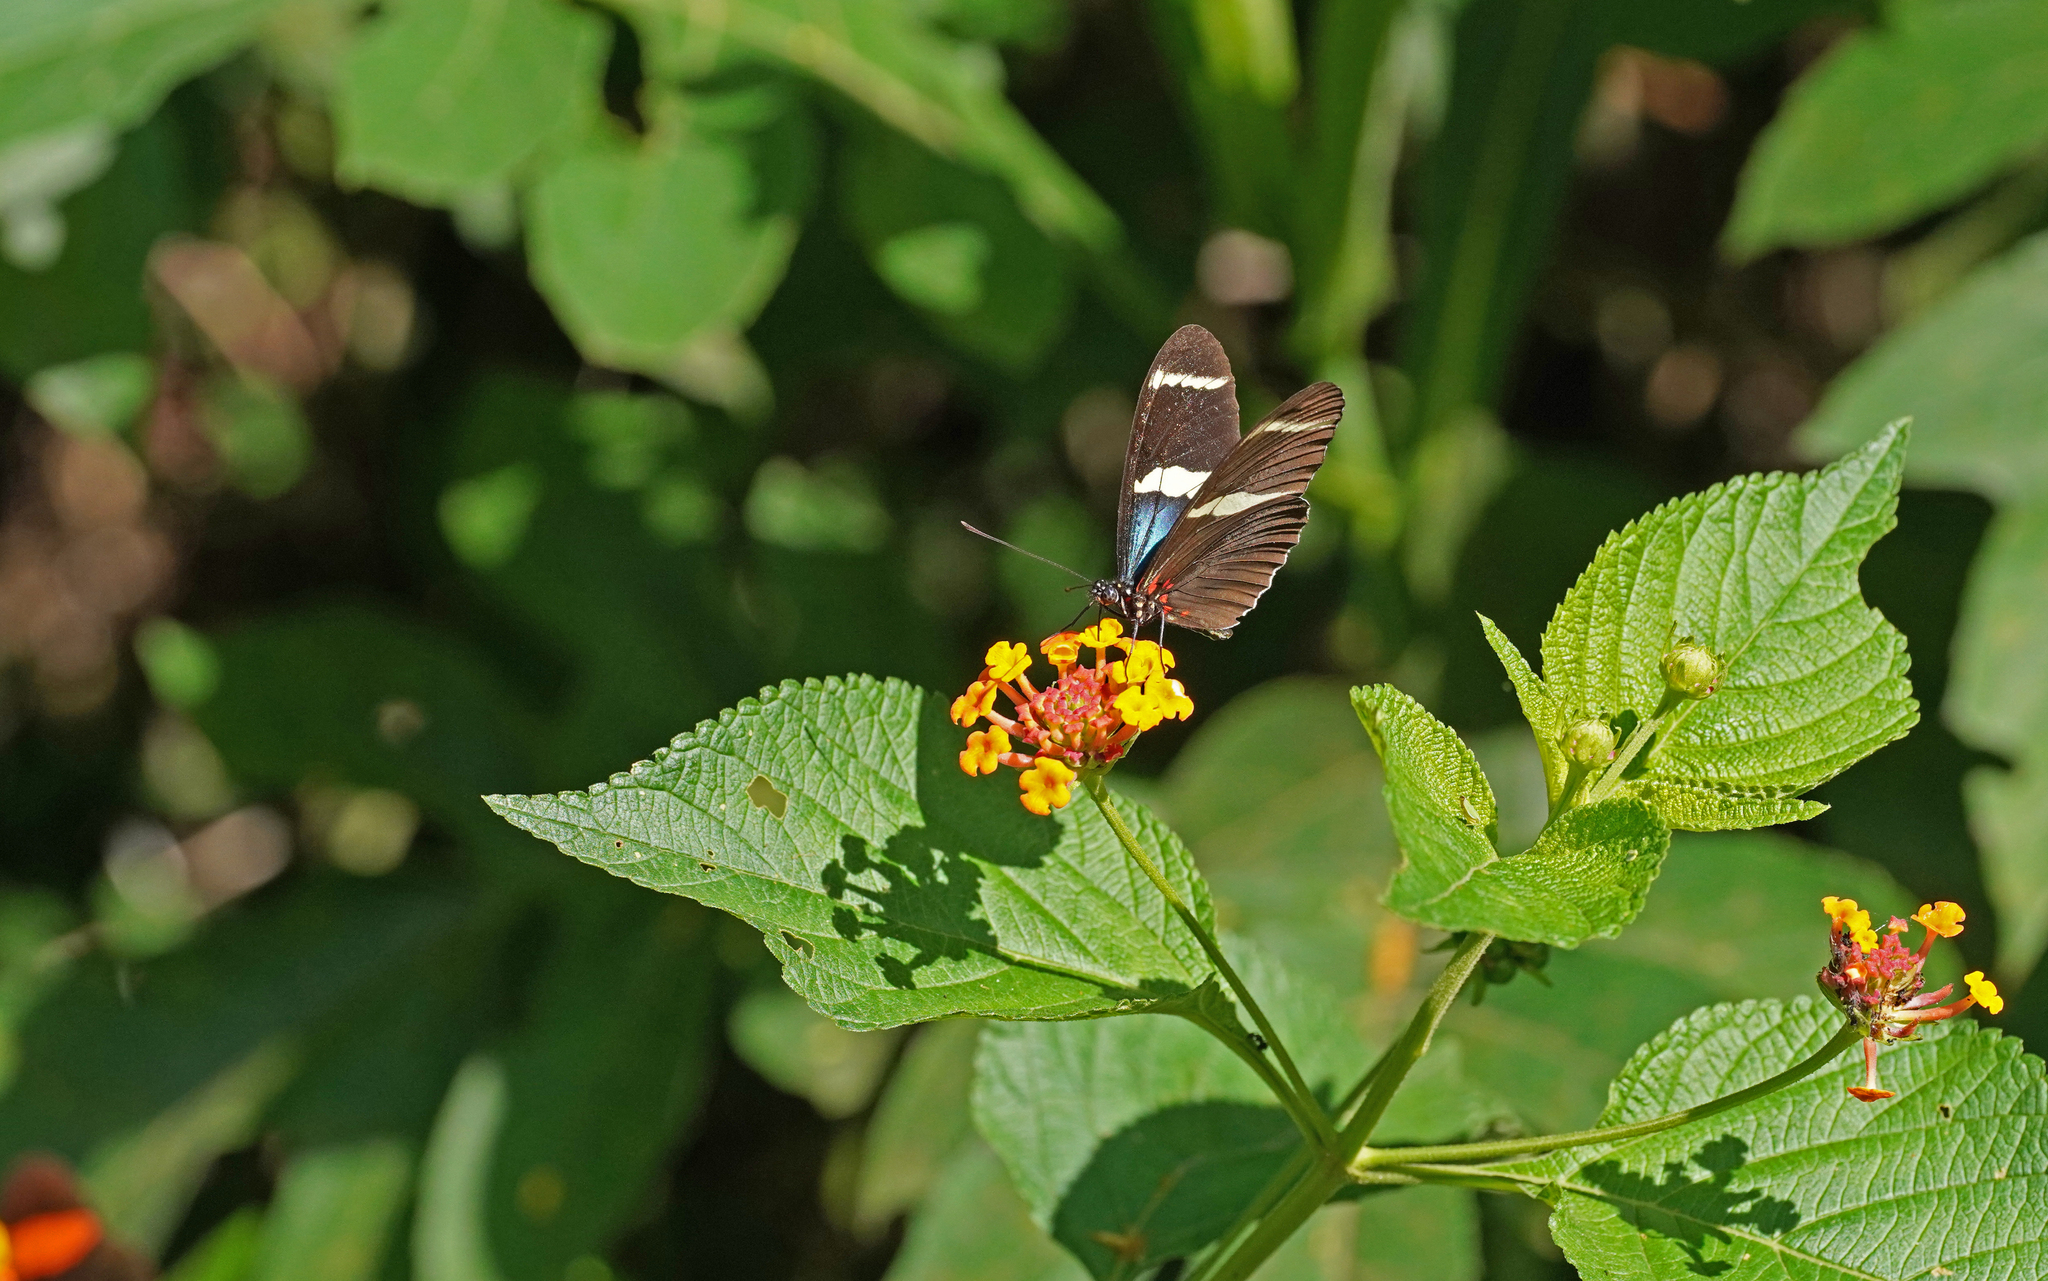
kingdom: Animalia
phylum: Arthropoda
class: Insecta
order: Lepidoptera
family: Nymphalidae
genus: Heliconius
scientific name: Heliconius sara
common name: Sara longwing
